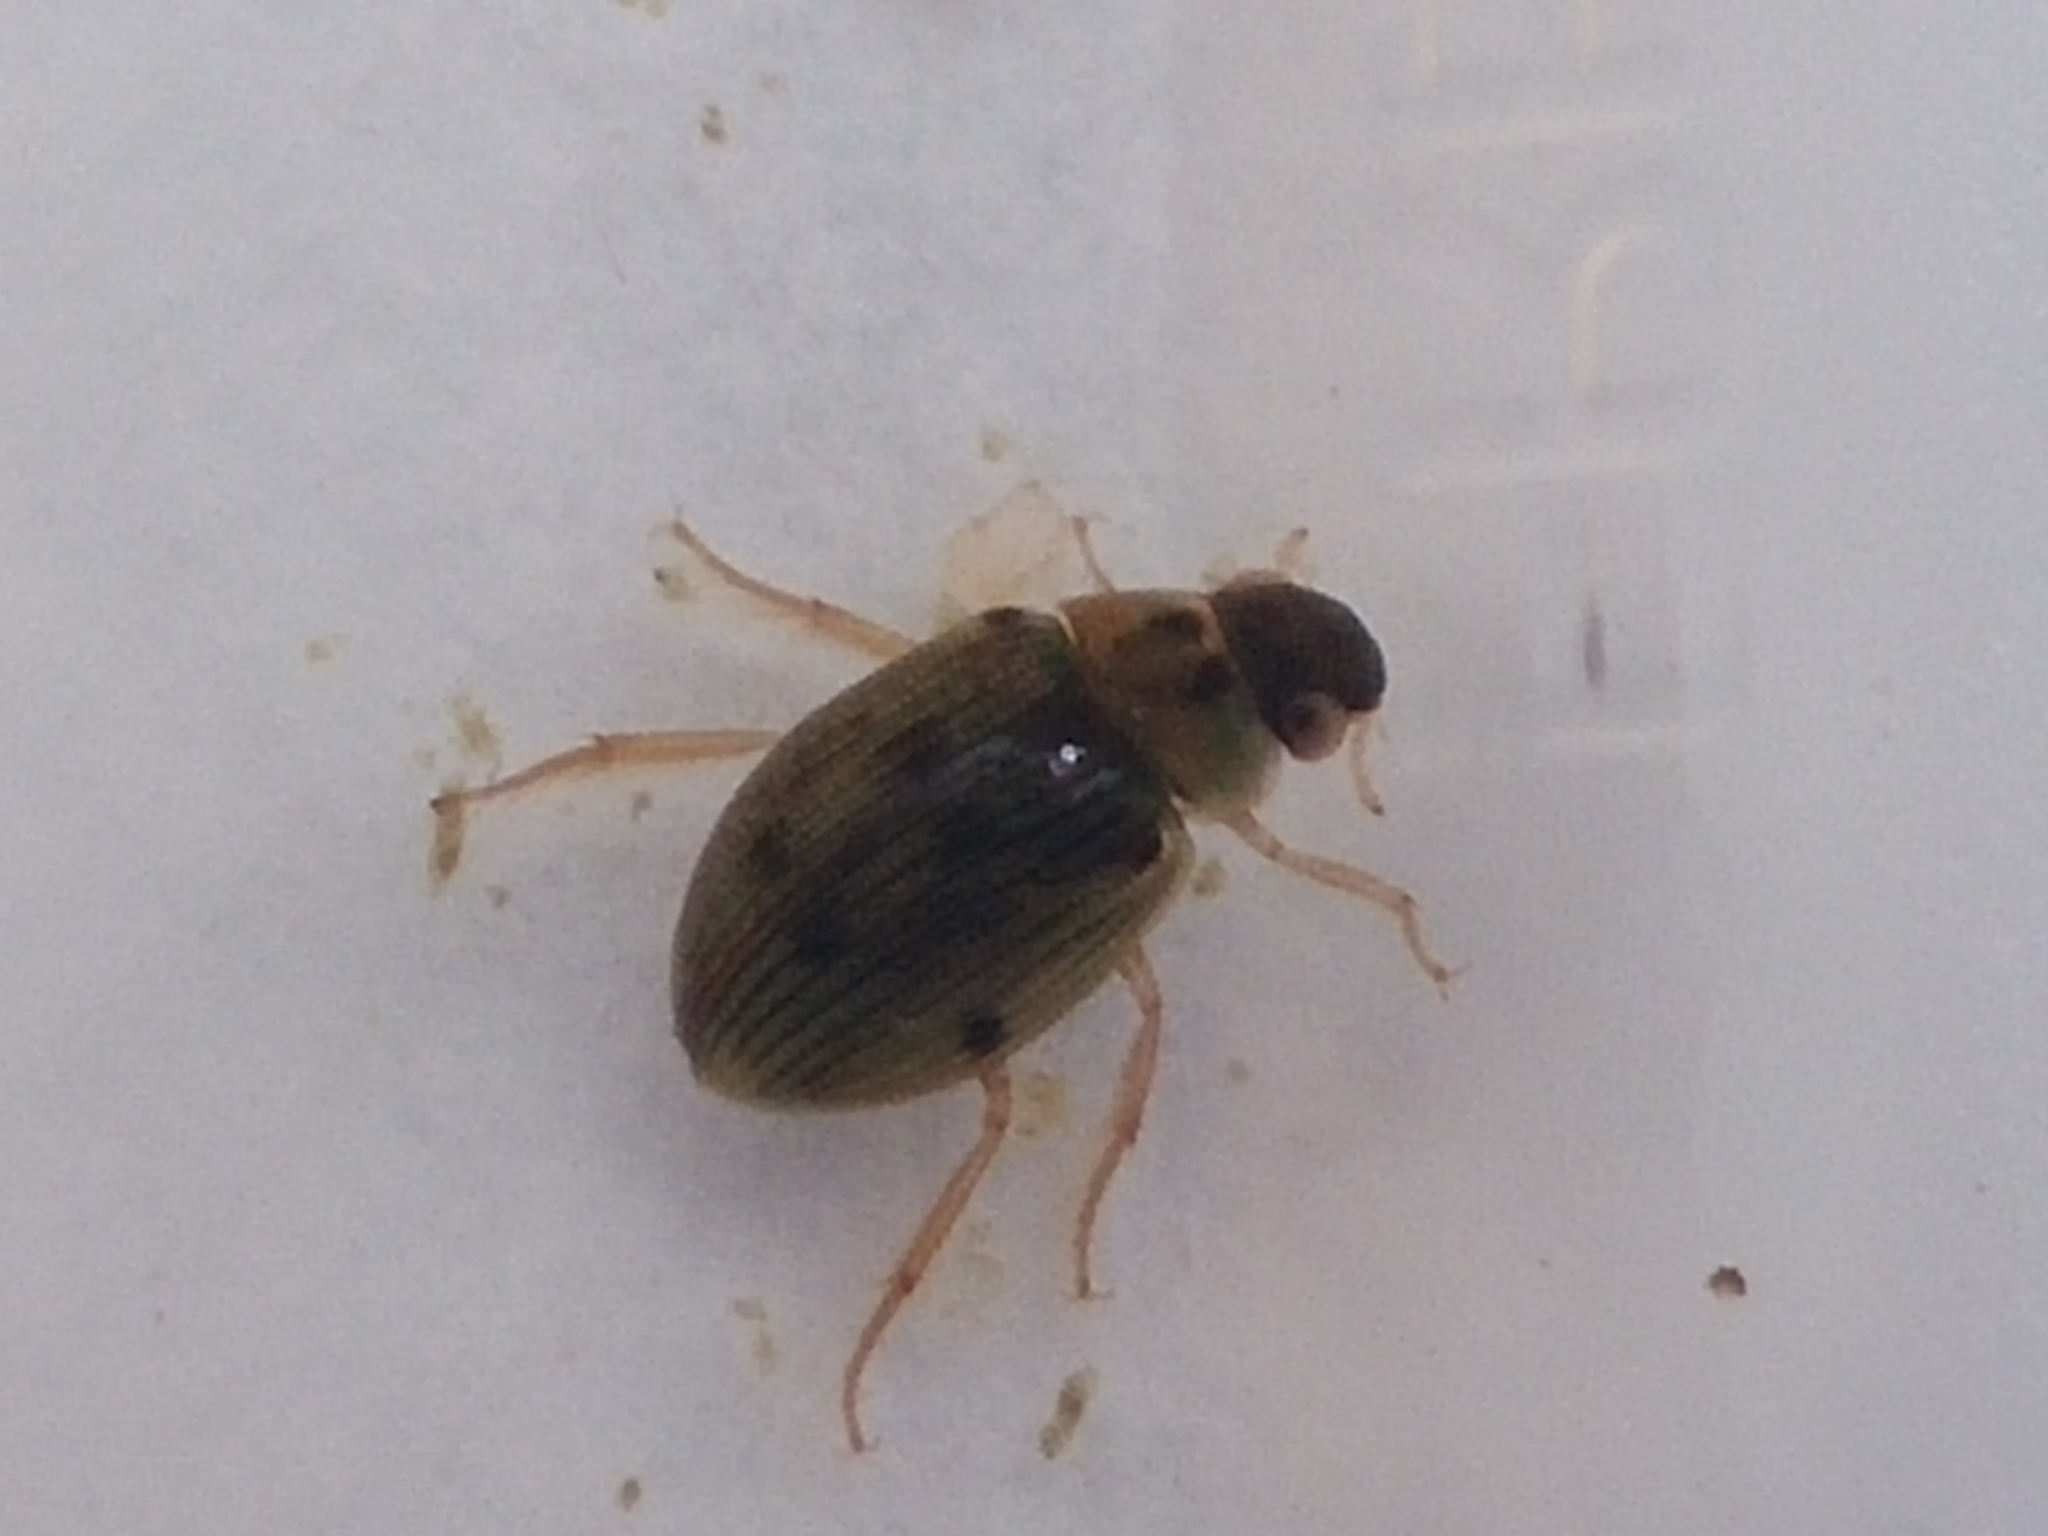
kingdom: Animalia
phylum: Arthropoda
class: Insecta
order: Coleoptera
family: Hydrophilidae
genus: Berosus
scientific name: Berosus
